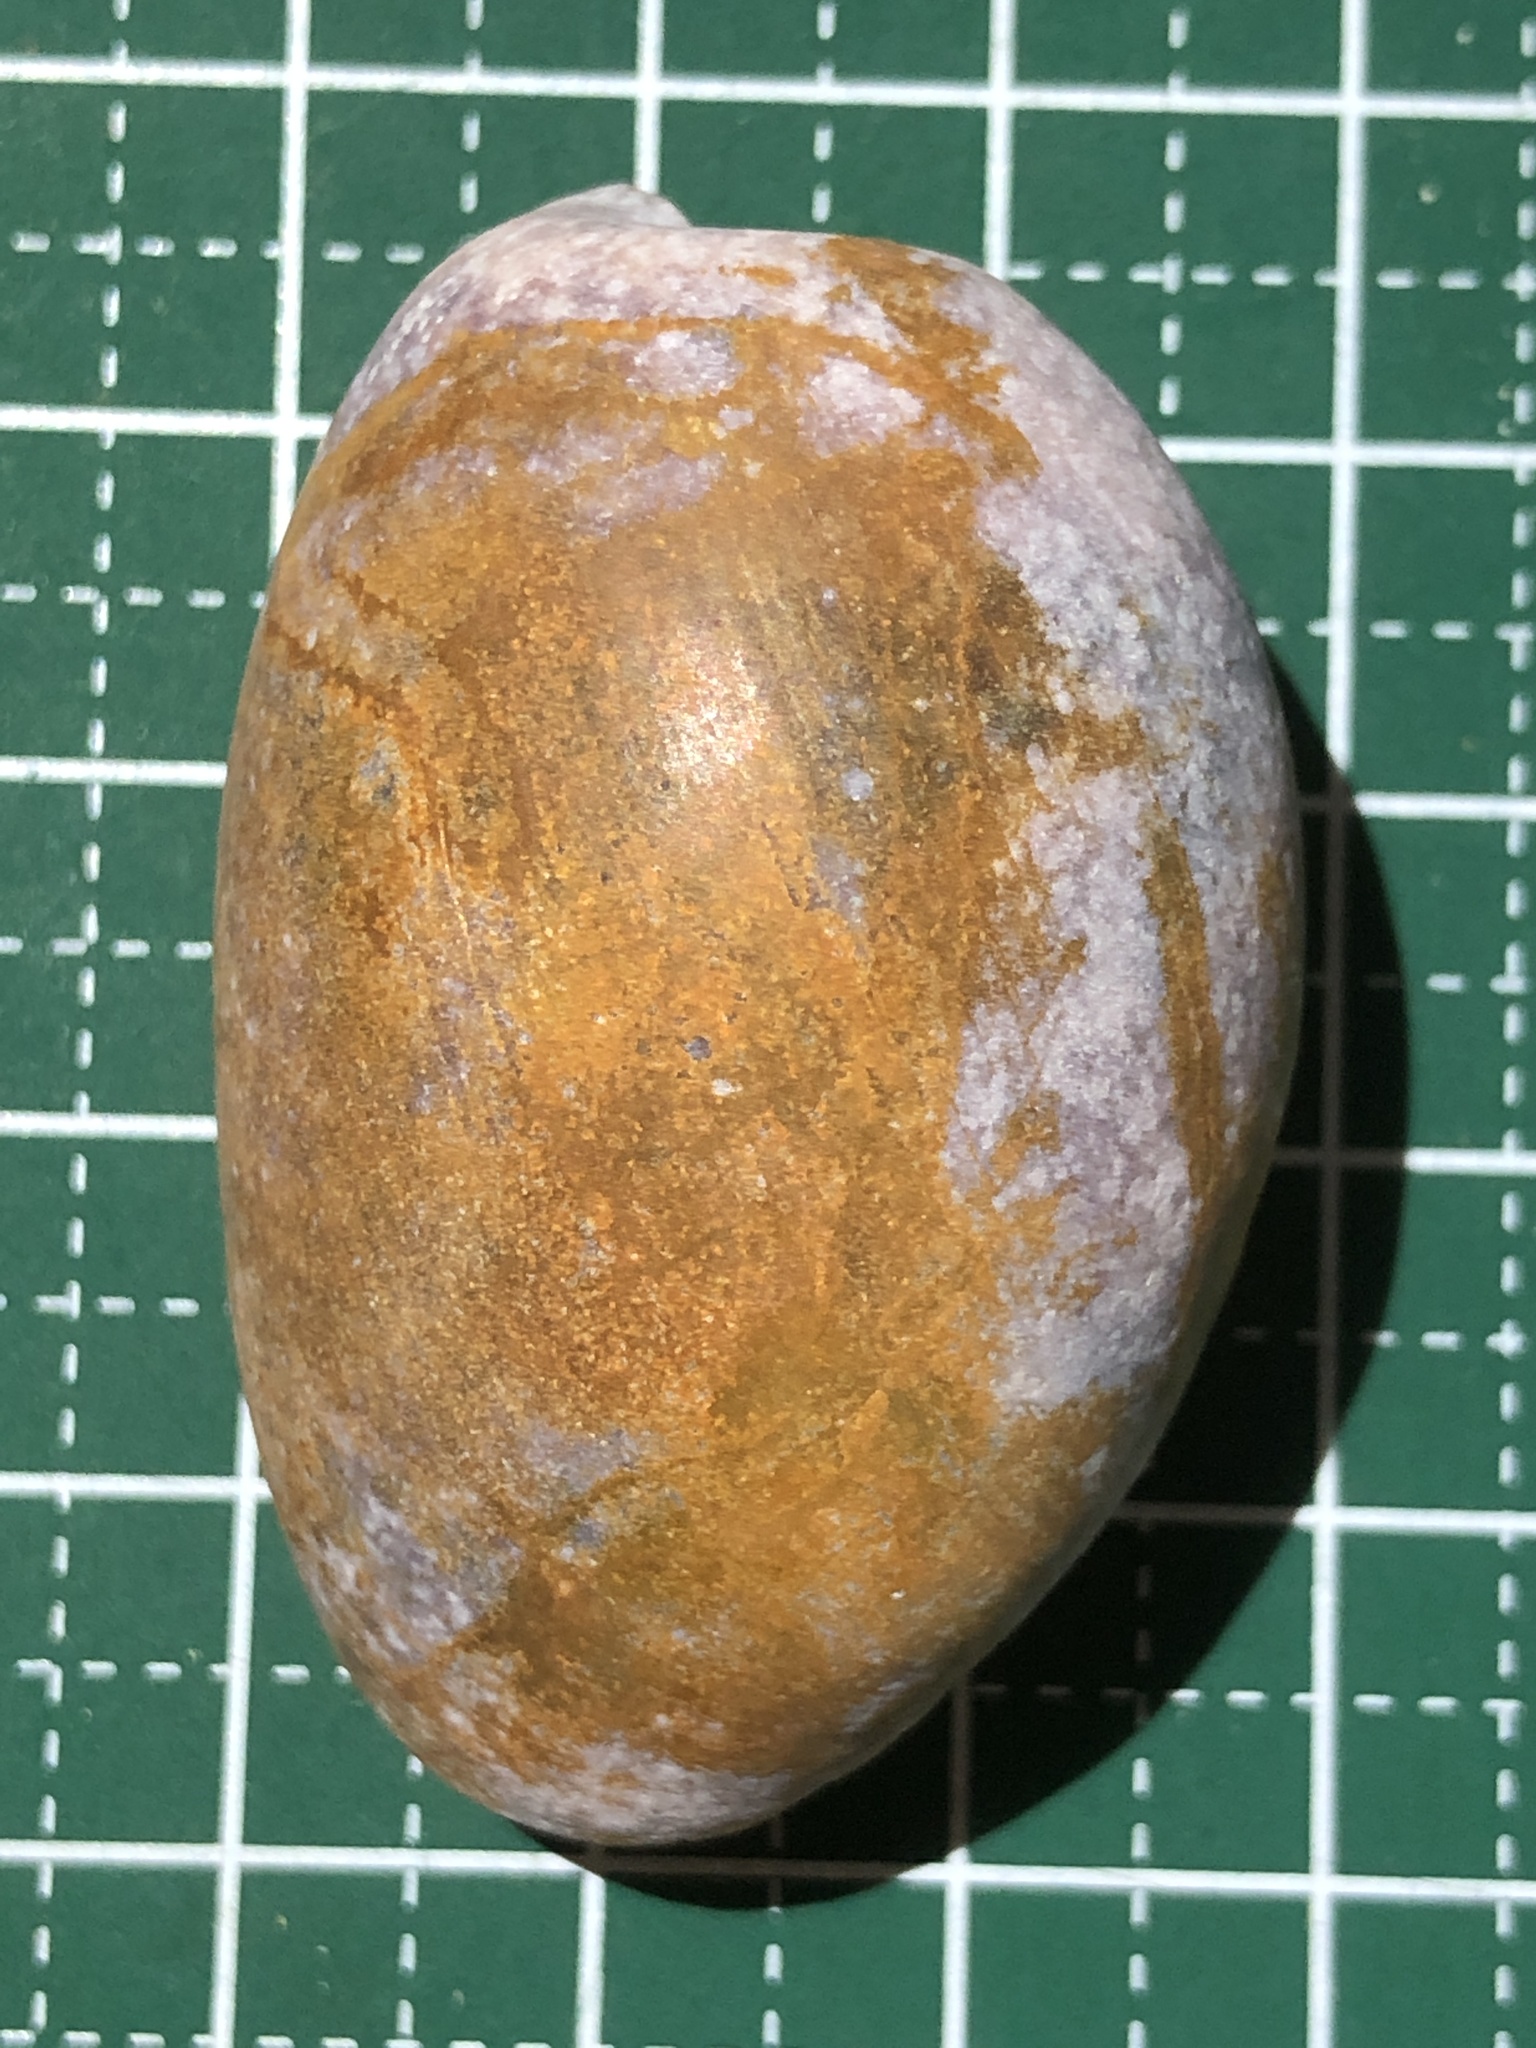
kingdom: Animalia
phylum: Mollusca
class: Gastropoda
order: Cephalaspidea
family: Bullidae
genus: Bulla
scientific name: Bulla vernicosa
